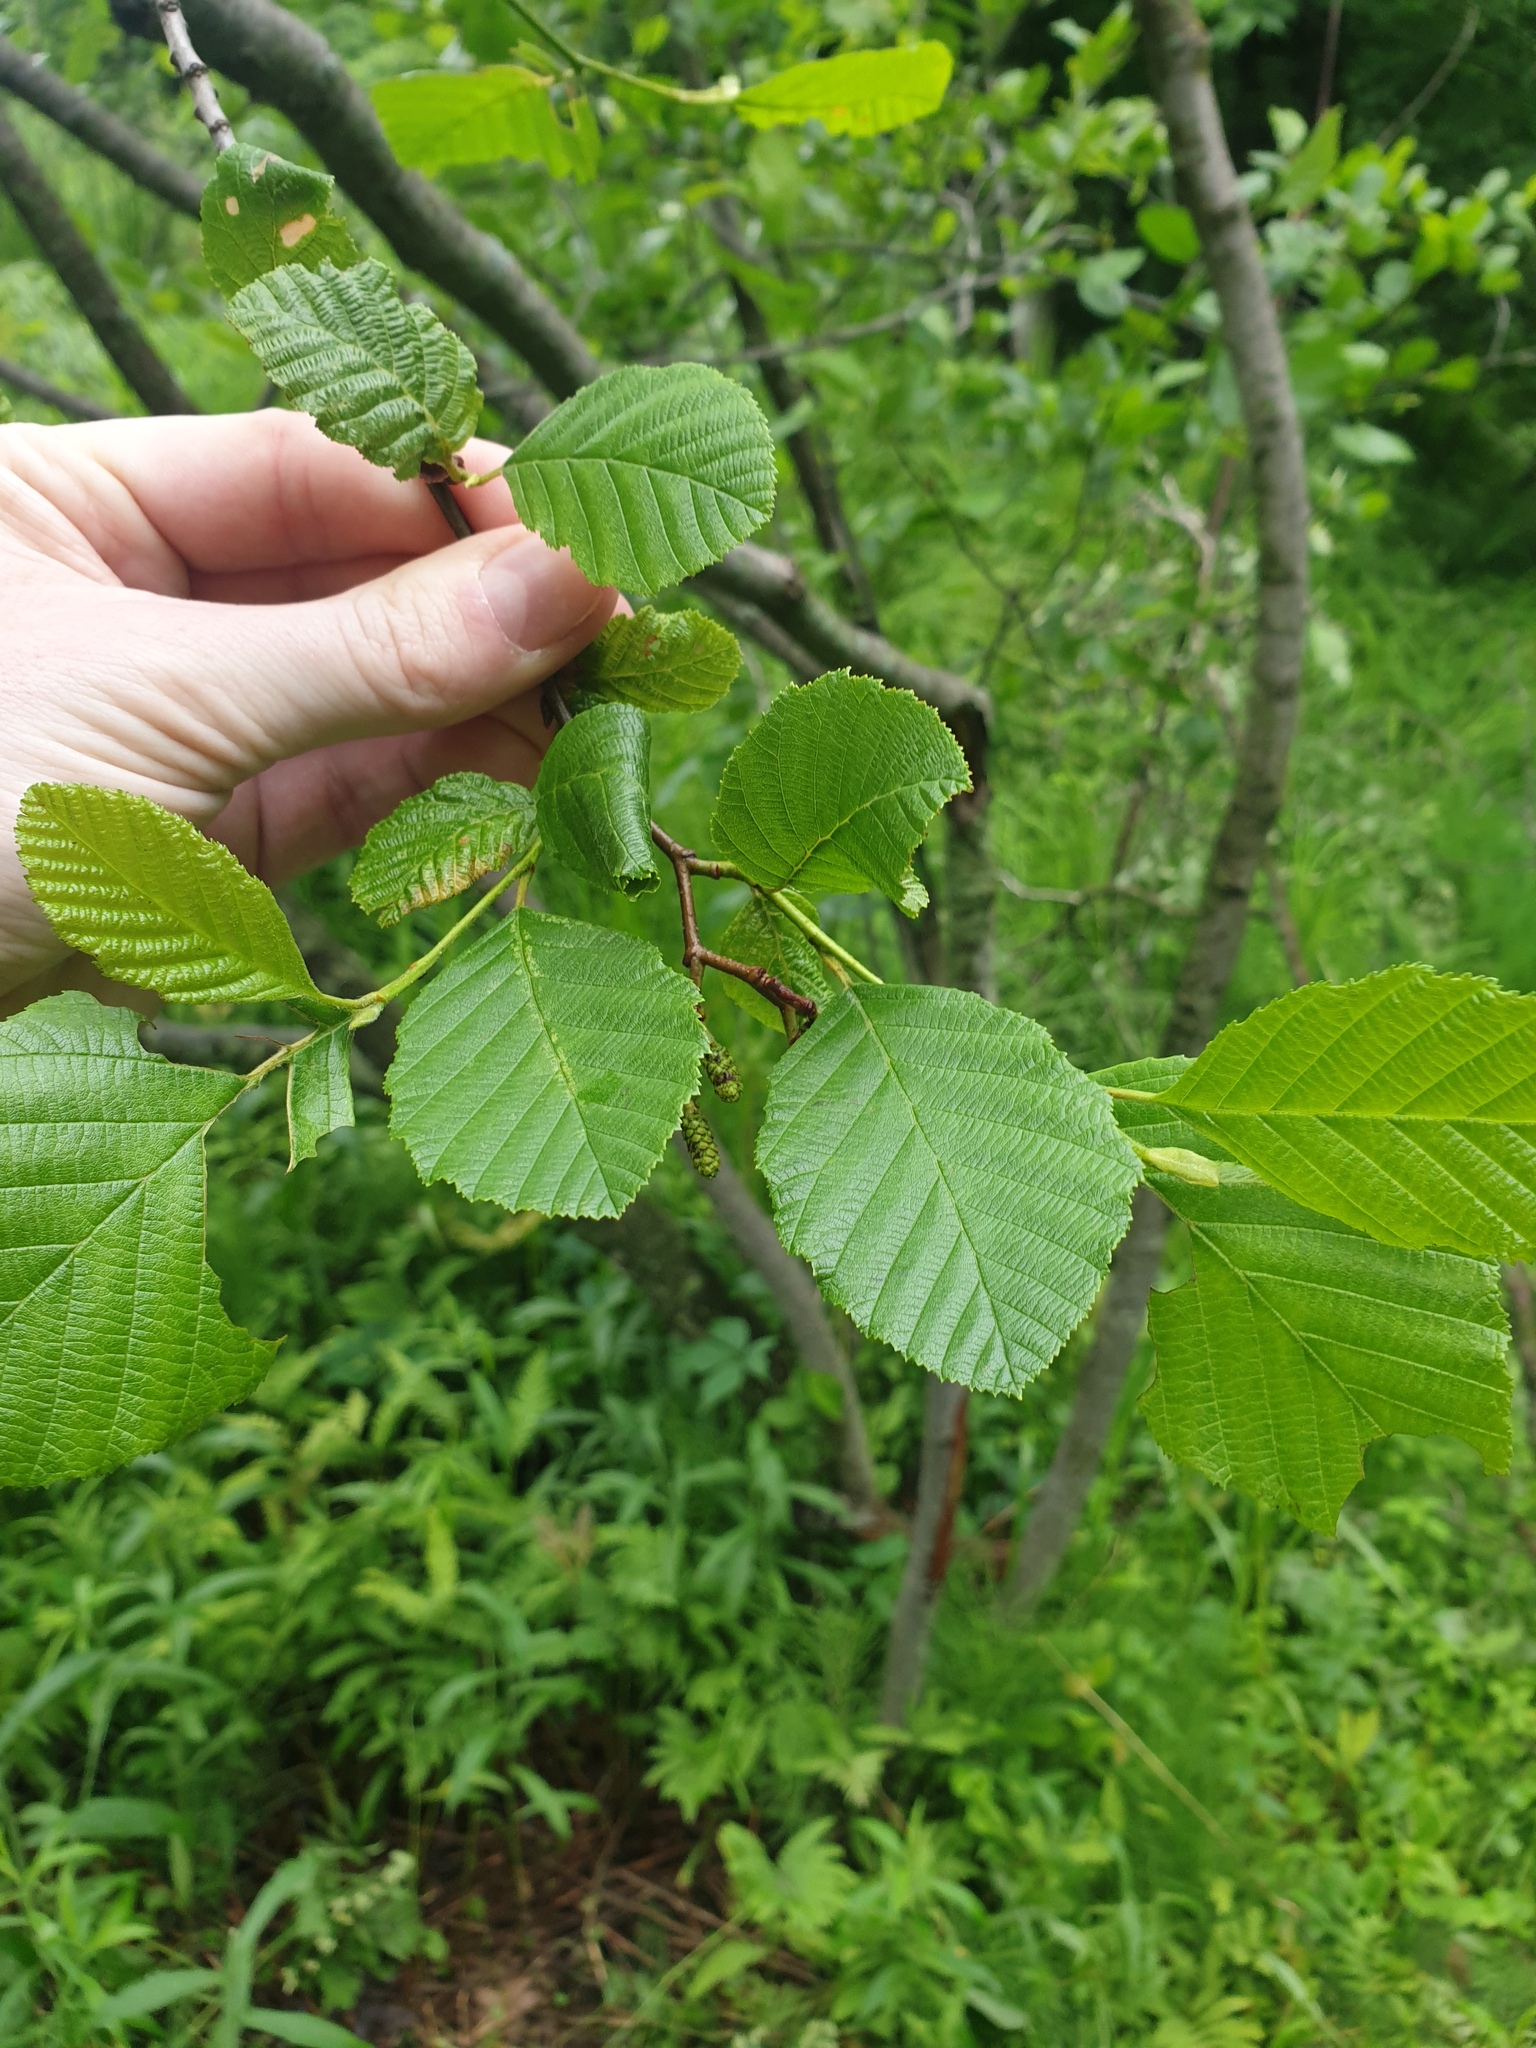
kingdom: Plantae
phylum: Tracheophyta
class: Magnoliopsida
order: Fagales
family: Betulaceae
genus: Alnus
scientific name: Alnus incana
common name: Grey alder
